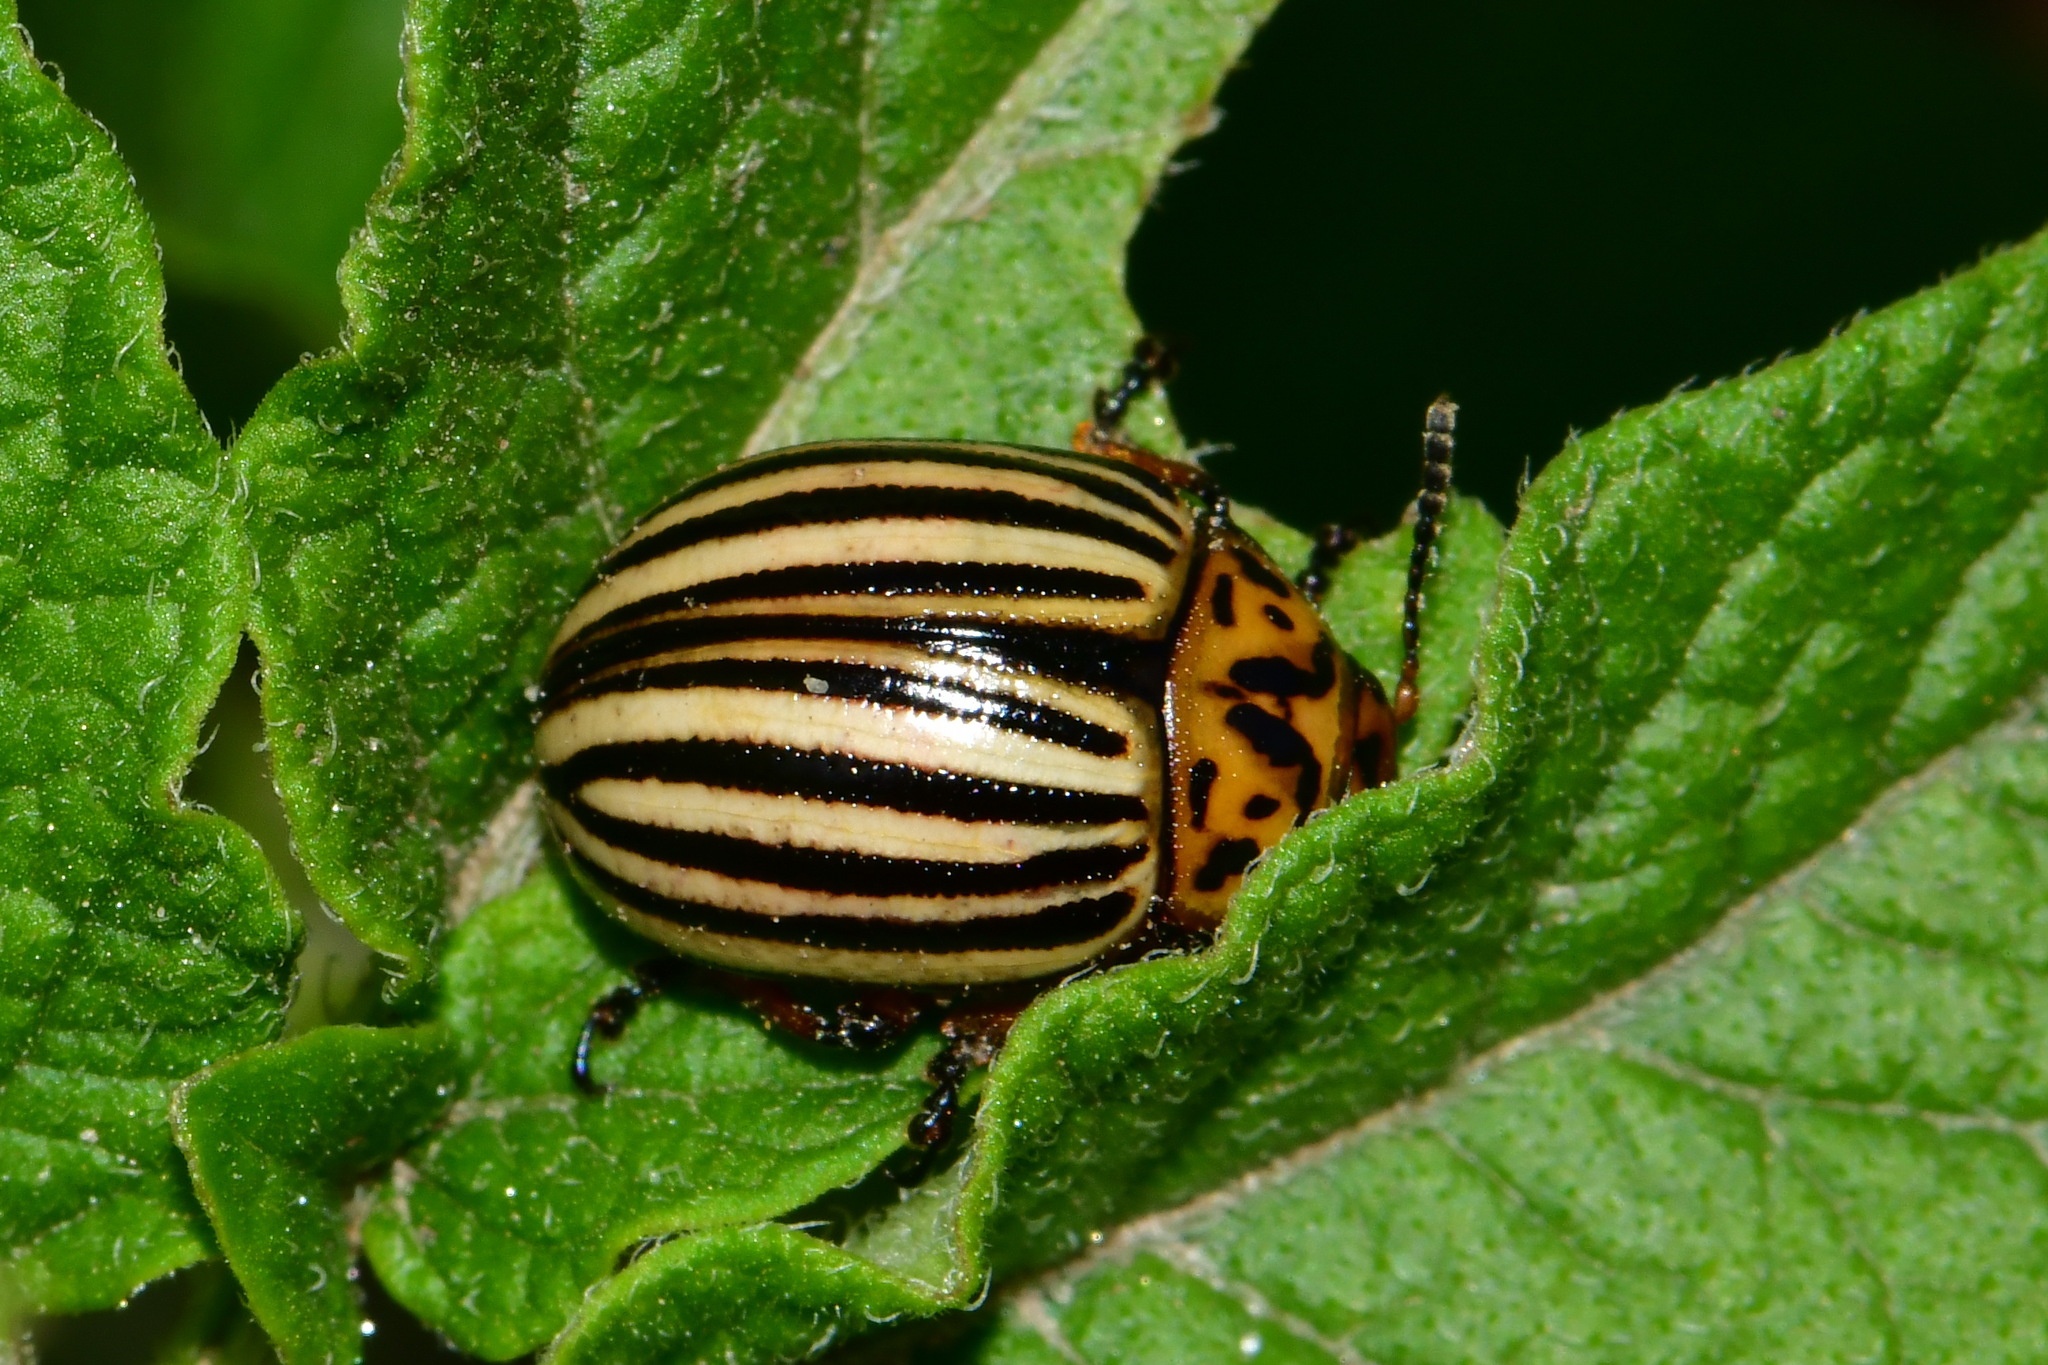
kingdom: Animalia
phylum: Arthropoda
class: Insecta
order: Coleoptera
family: Chrysomelidae
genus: Leptinotarsa
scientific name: Leptinotarsa decemlineata
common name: Colorado potato beetle
